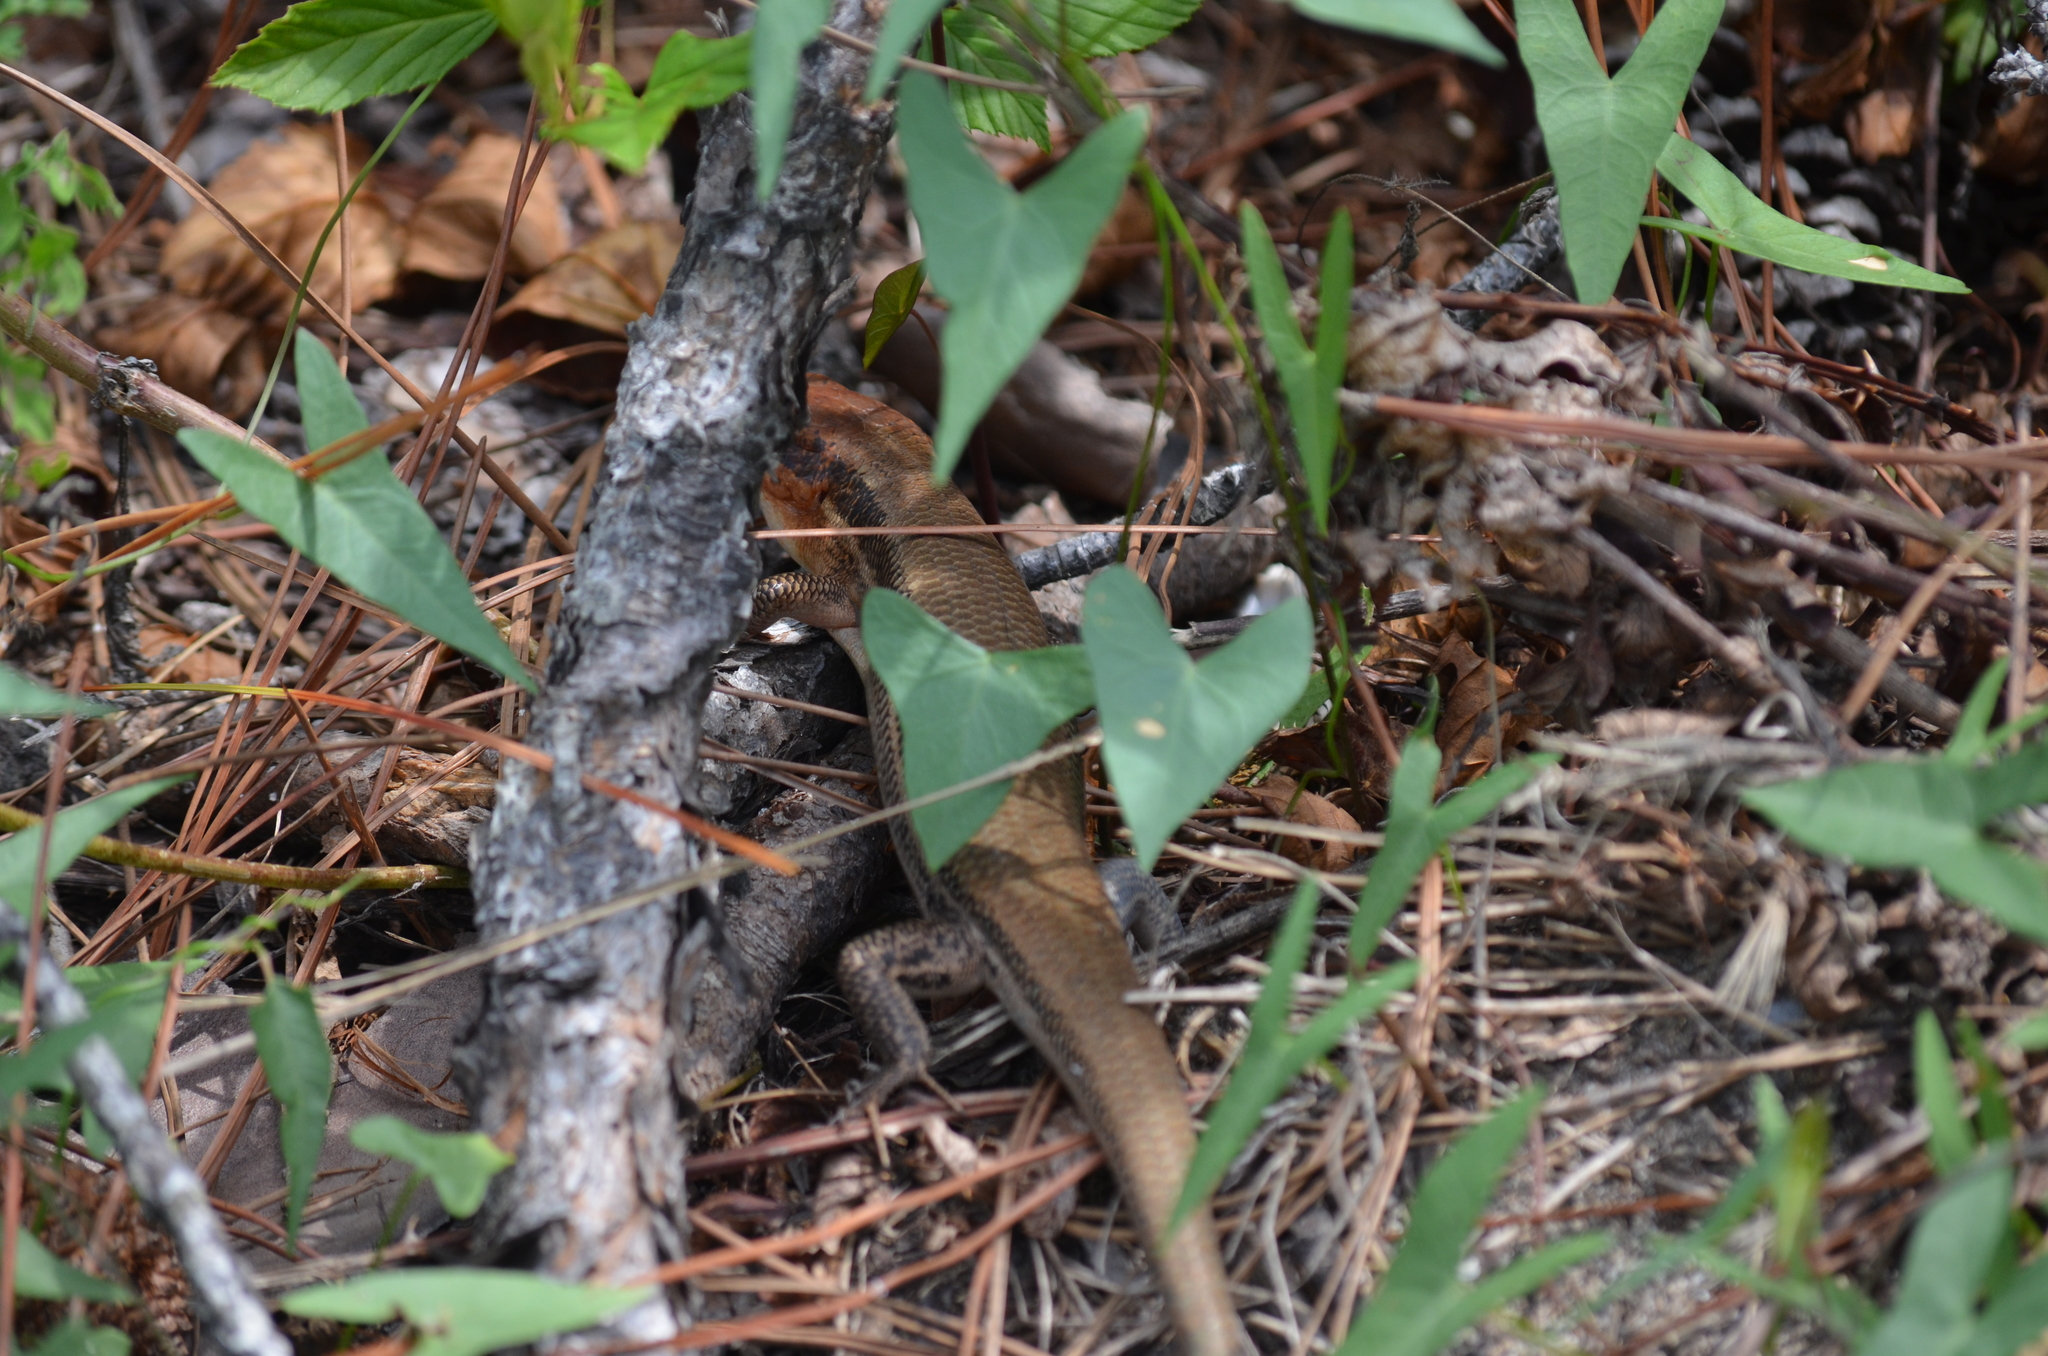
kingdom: Animalia
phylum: Chordata
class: Squamata
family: Scincidae
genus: Plestiodon
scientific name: Plestiodon laticeps
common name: Broadhead skink
